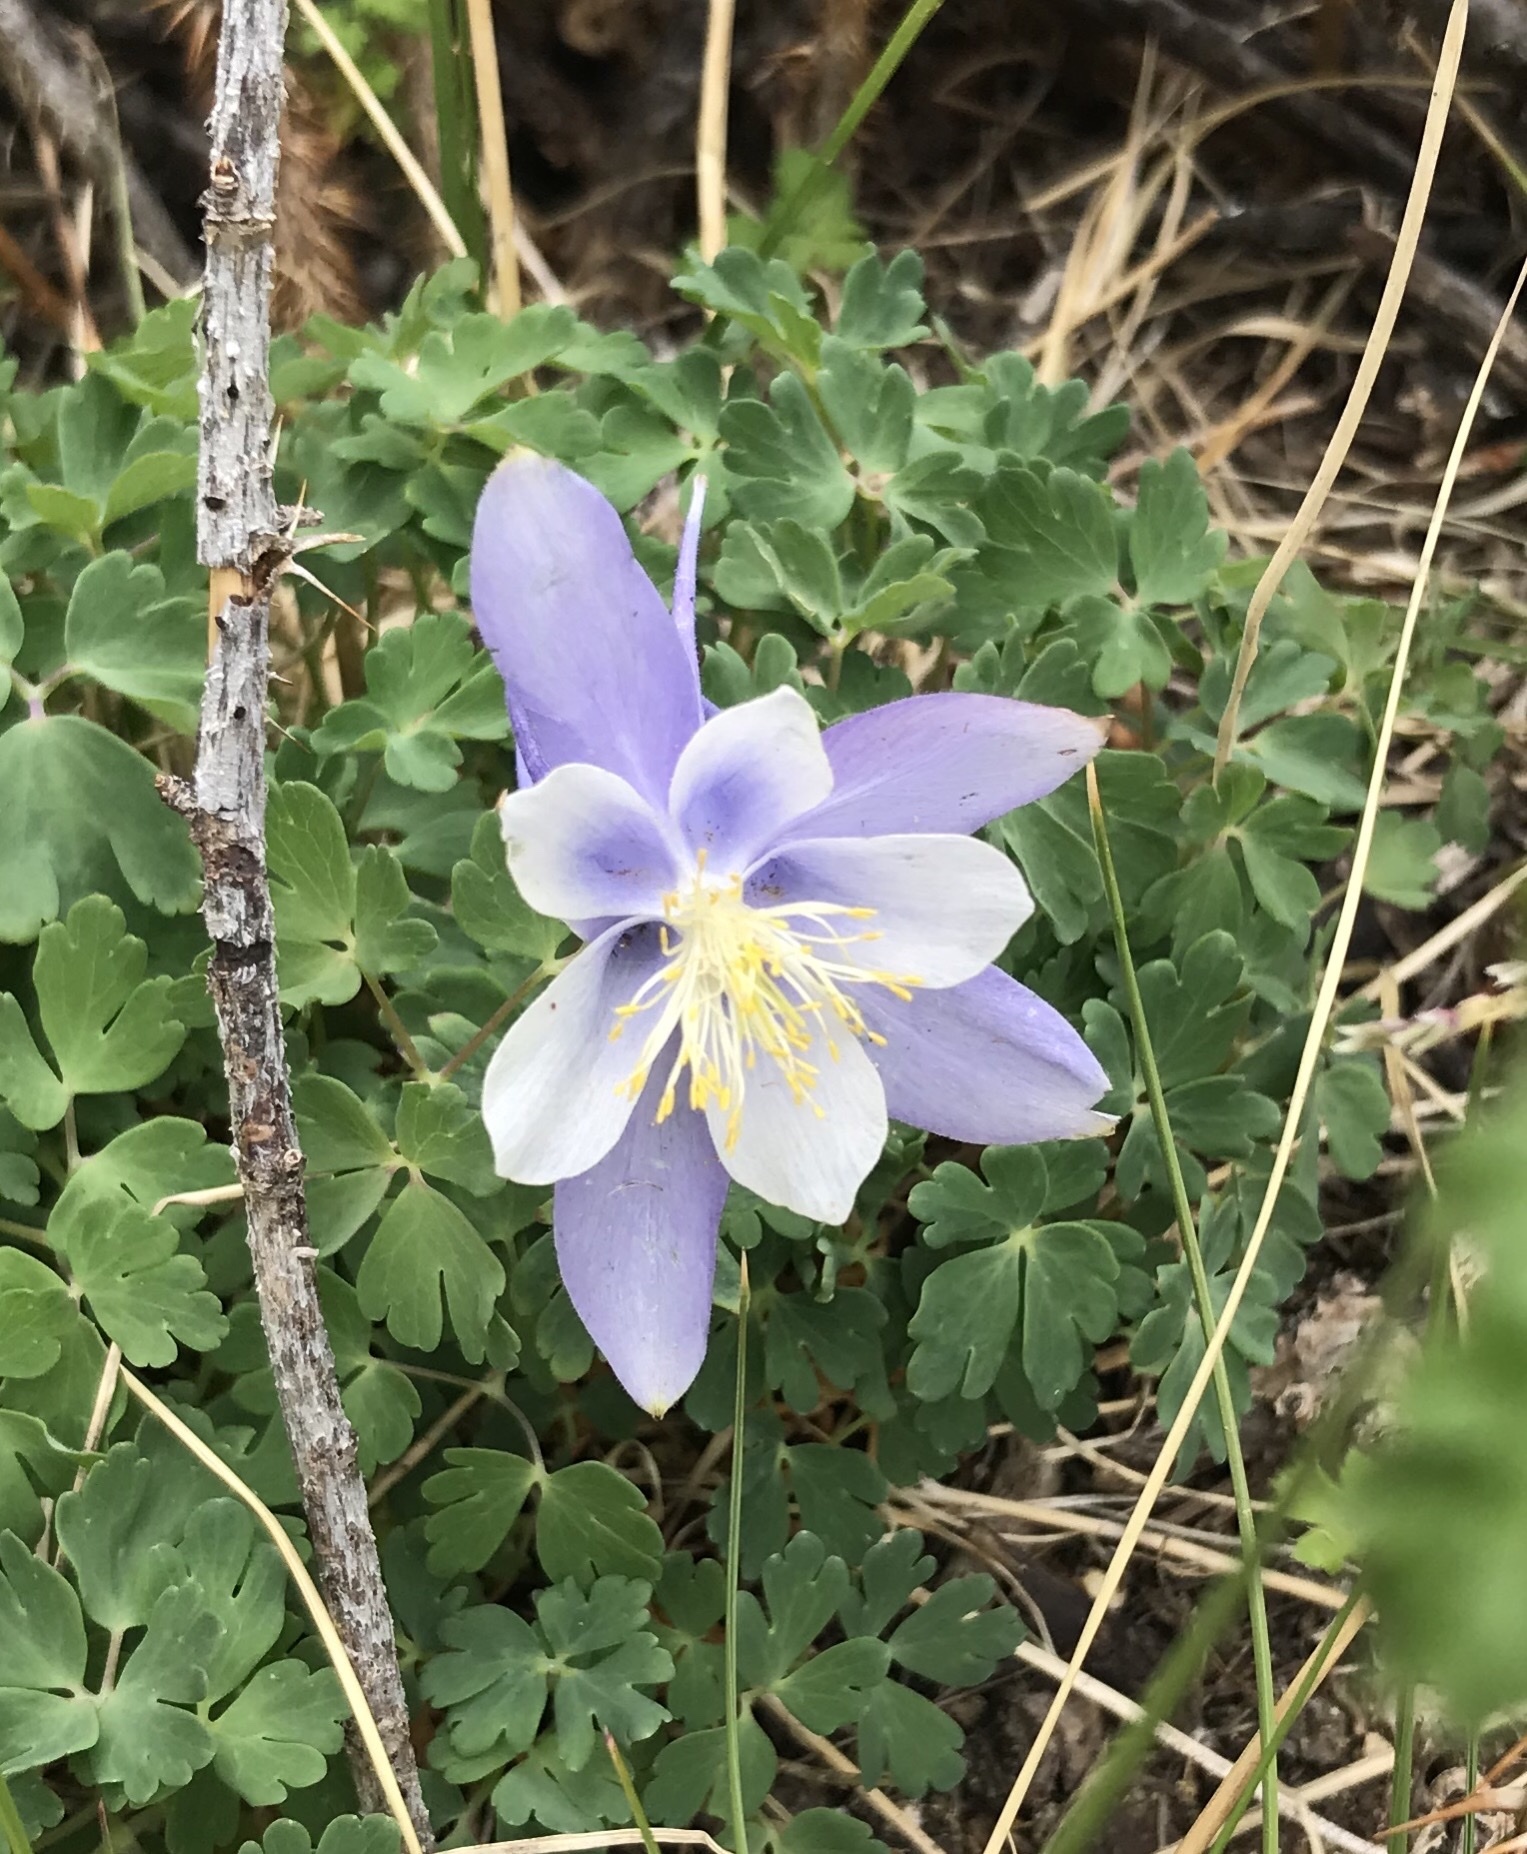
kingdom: Plantae
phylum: Tracheophyta
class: Magnoliopsida
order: Ranunculales
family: Ranunculaceae
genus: Aquilegia
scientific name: Aquilegia coerulea
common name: Rocky mountain columbine
